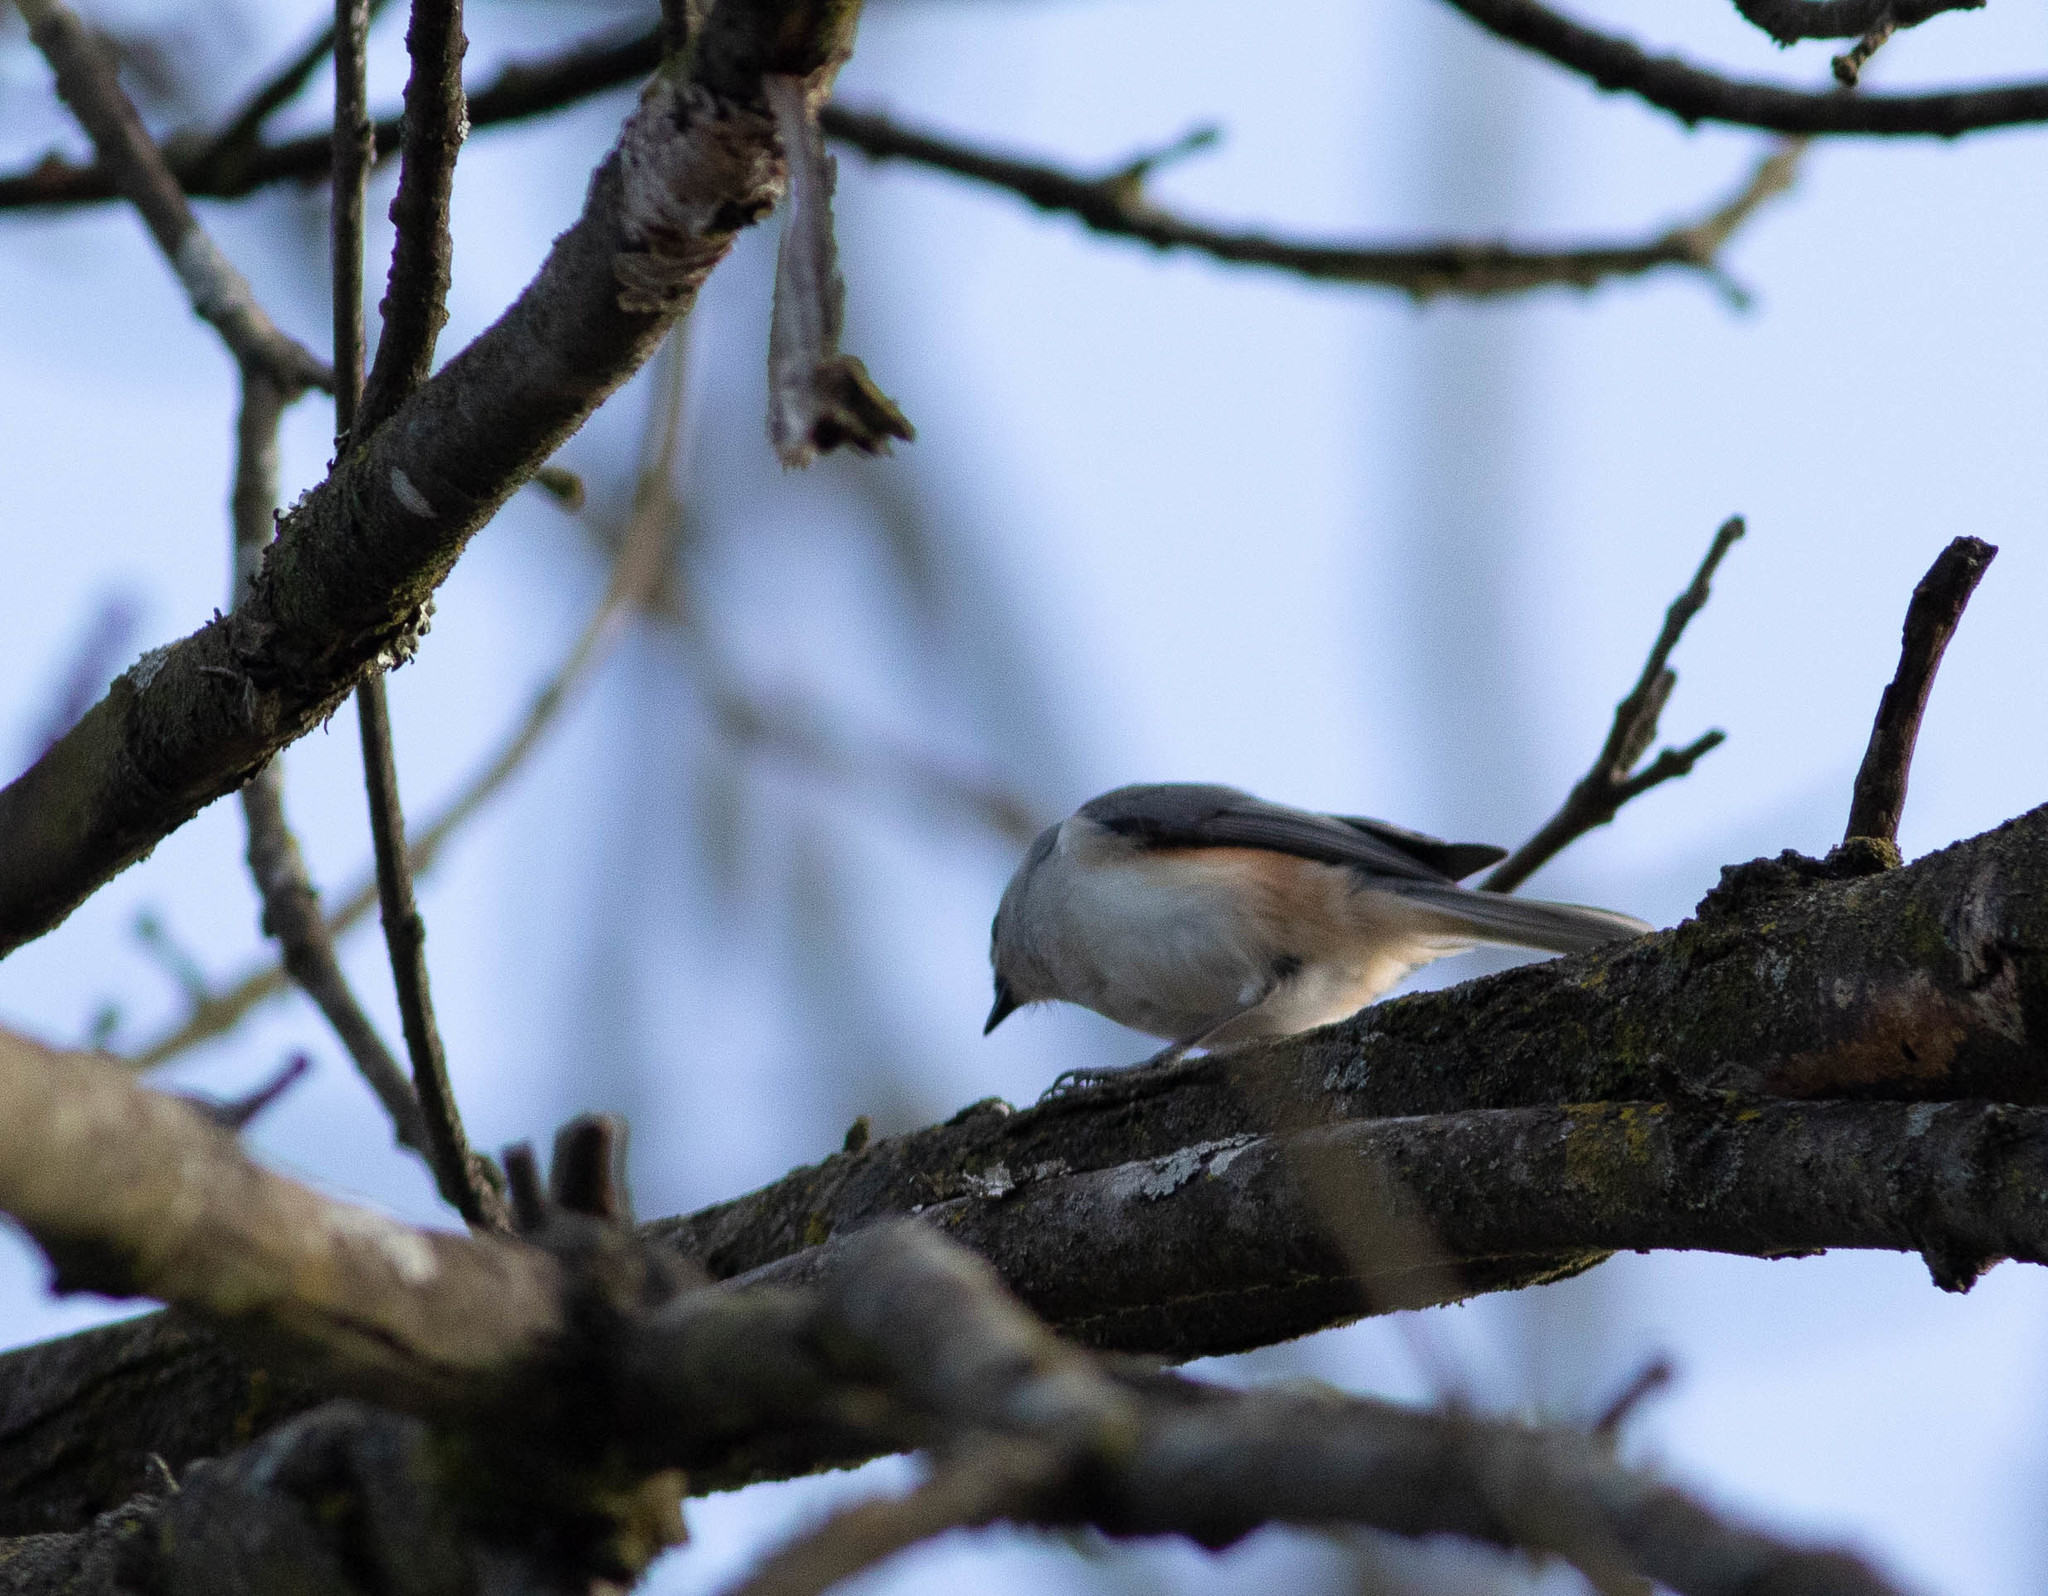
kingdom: Animalia
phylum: Chordata
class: Aves
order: Passeriformes
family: Paridae
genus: Baeolophus
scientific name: Baeolophus bicolor
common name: Tufted titmouse
